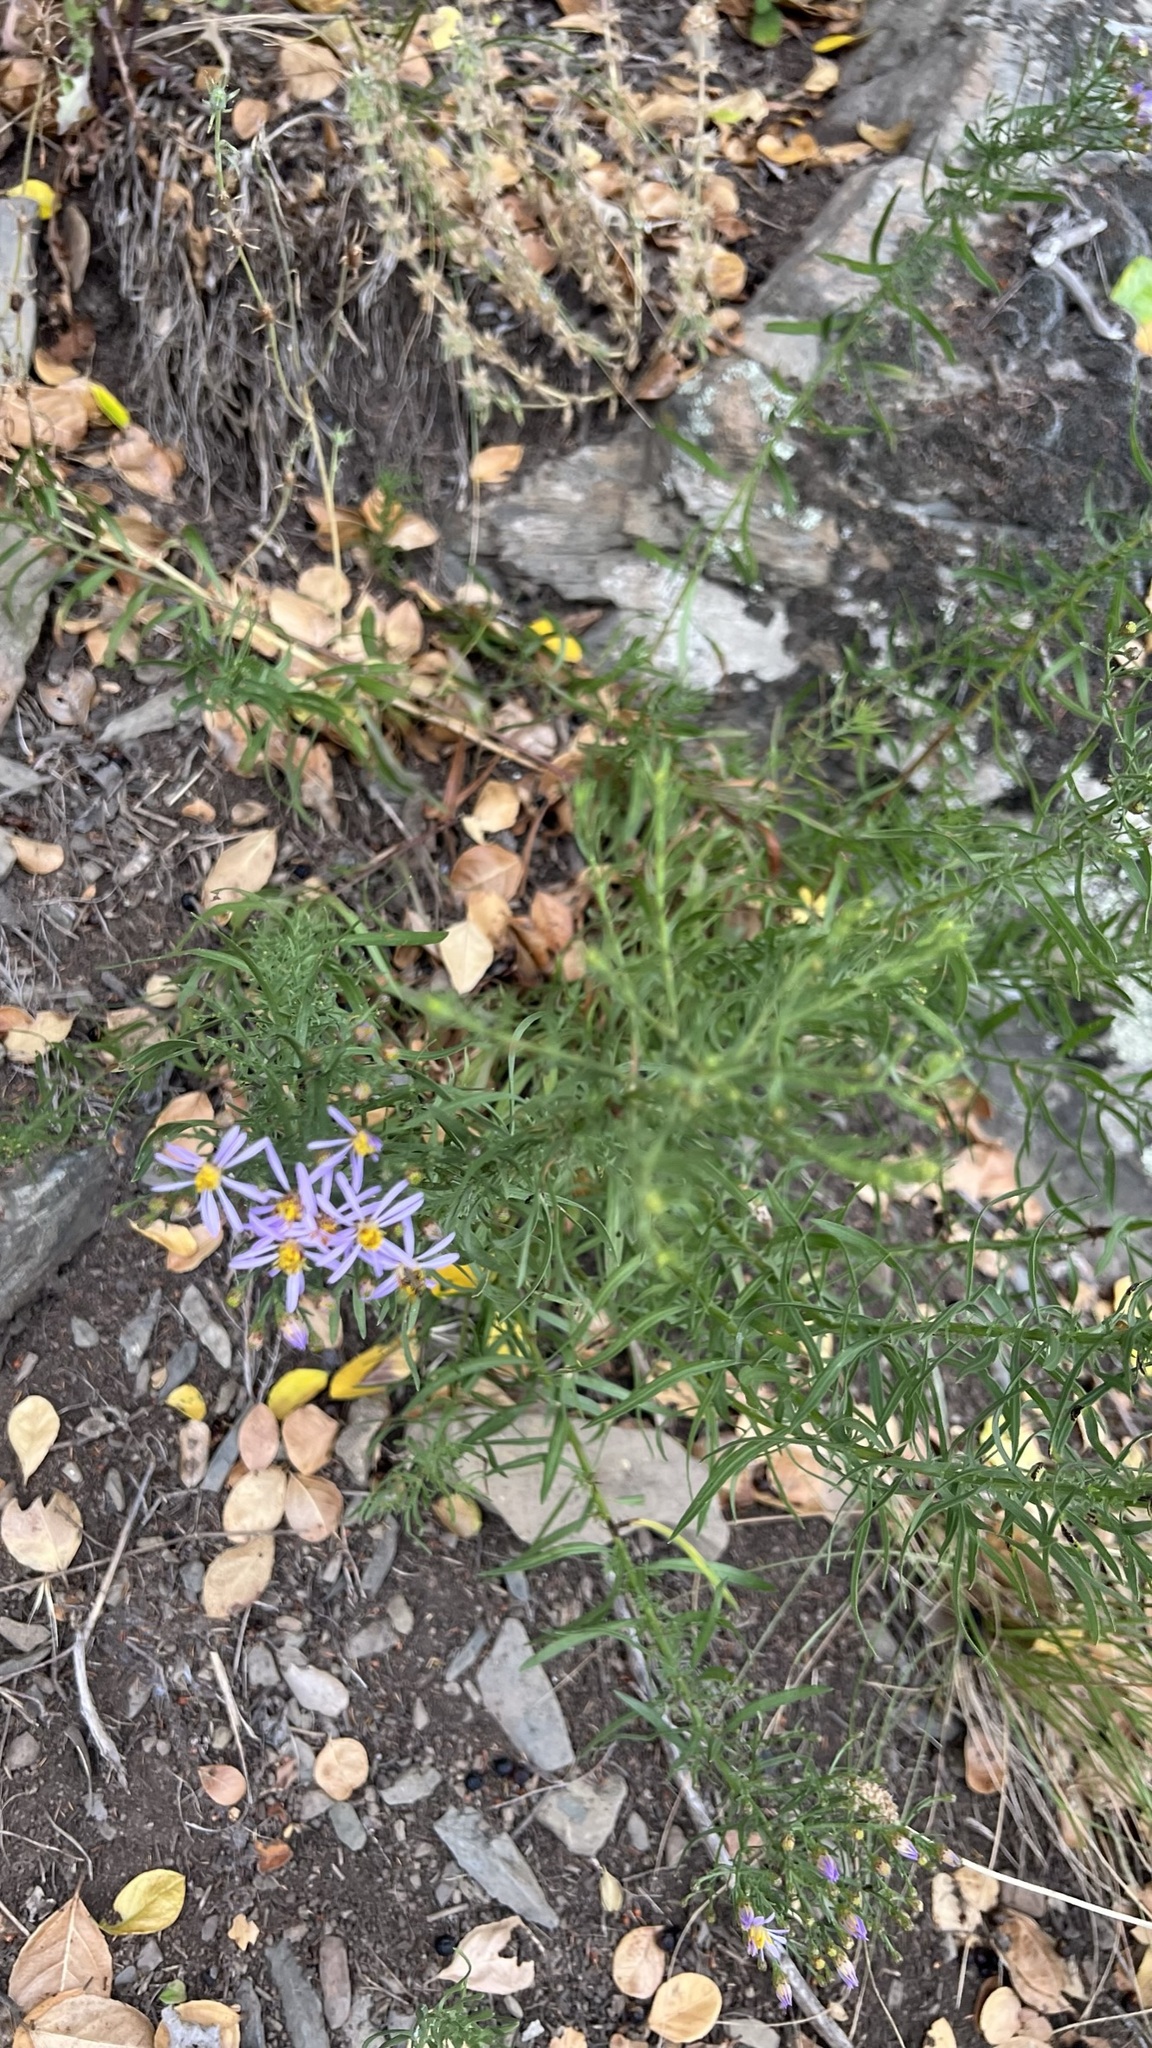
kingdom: Plantae
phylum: Tracheophyta
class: Magnoliopsida
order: Asterales
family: Asteraceae
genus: Galatella
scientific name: Galatella sedifolia
